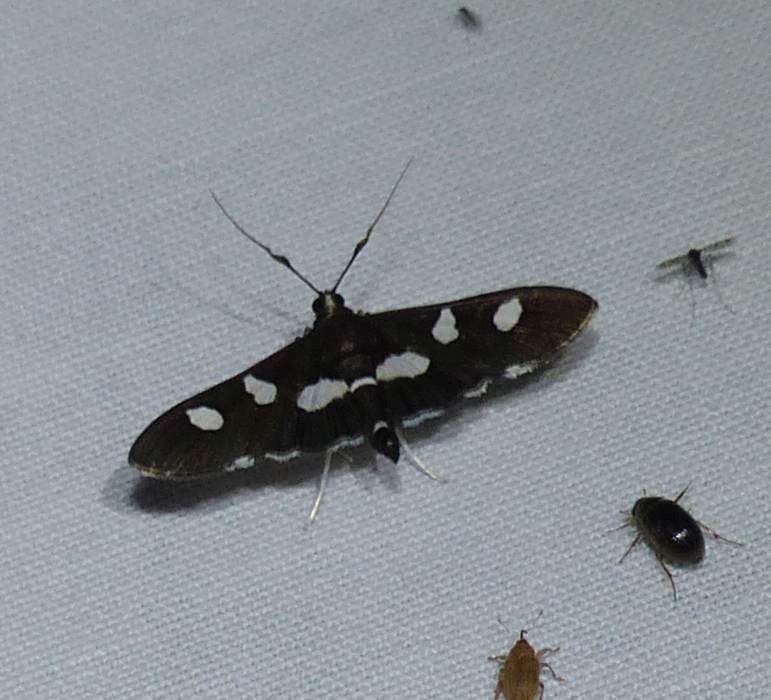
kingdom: Animalia
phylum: Arthropoda
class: Insecta
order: Lepidoptera
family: Crambidae
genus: Desmia
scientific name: Desmia
